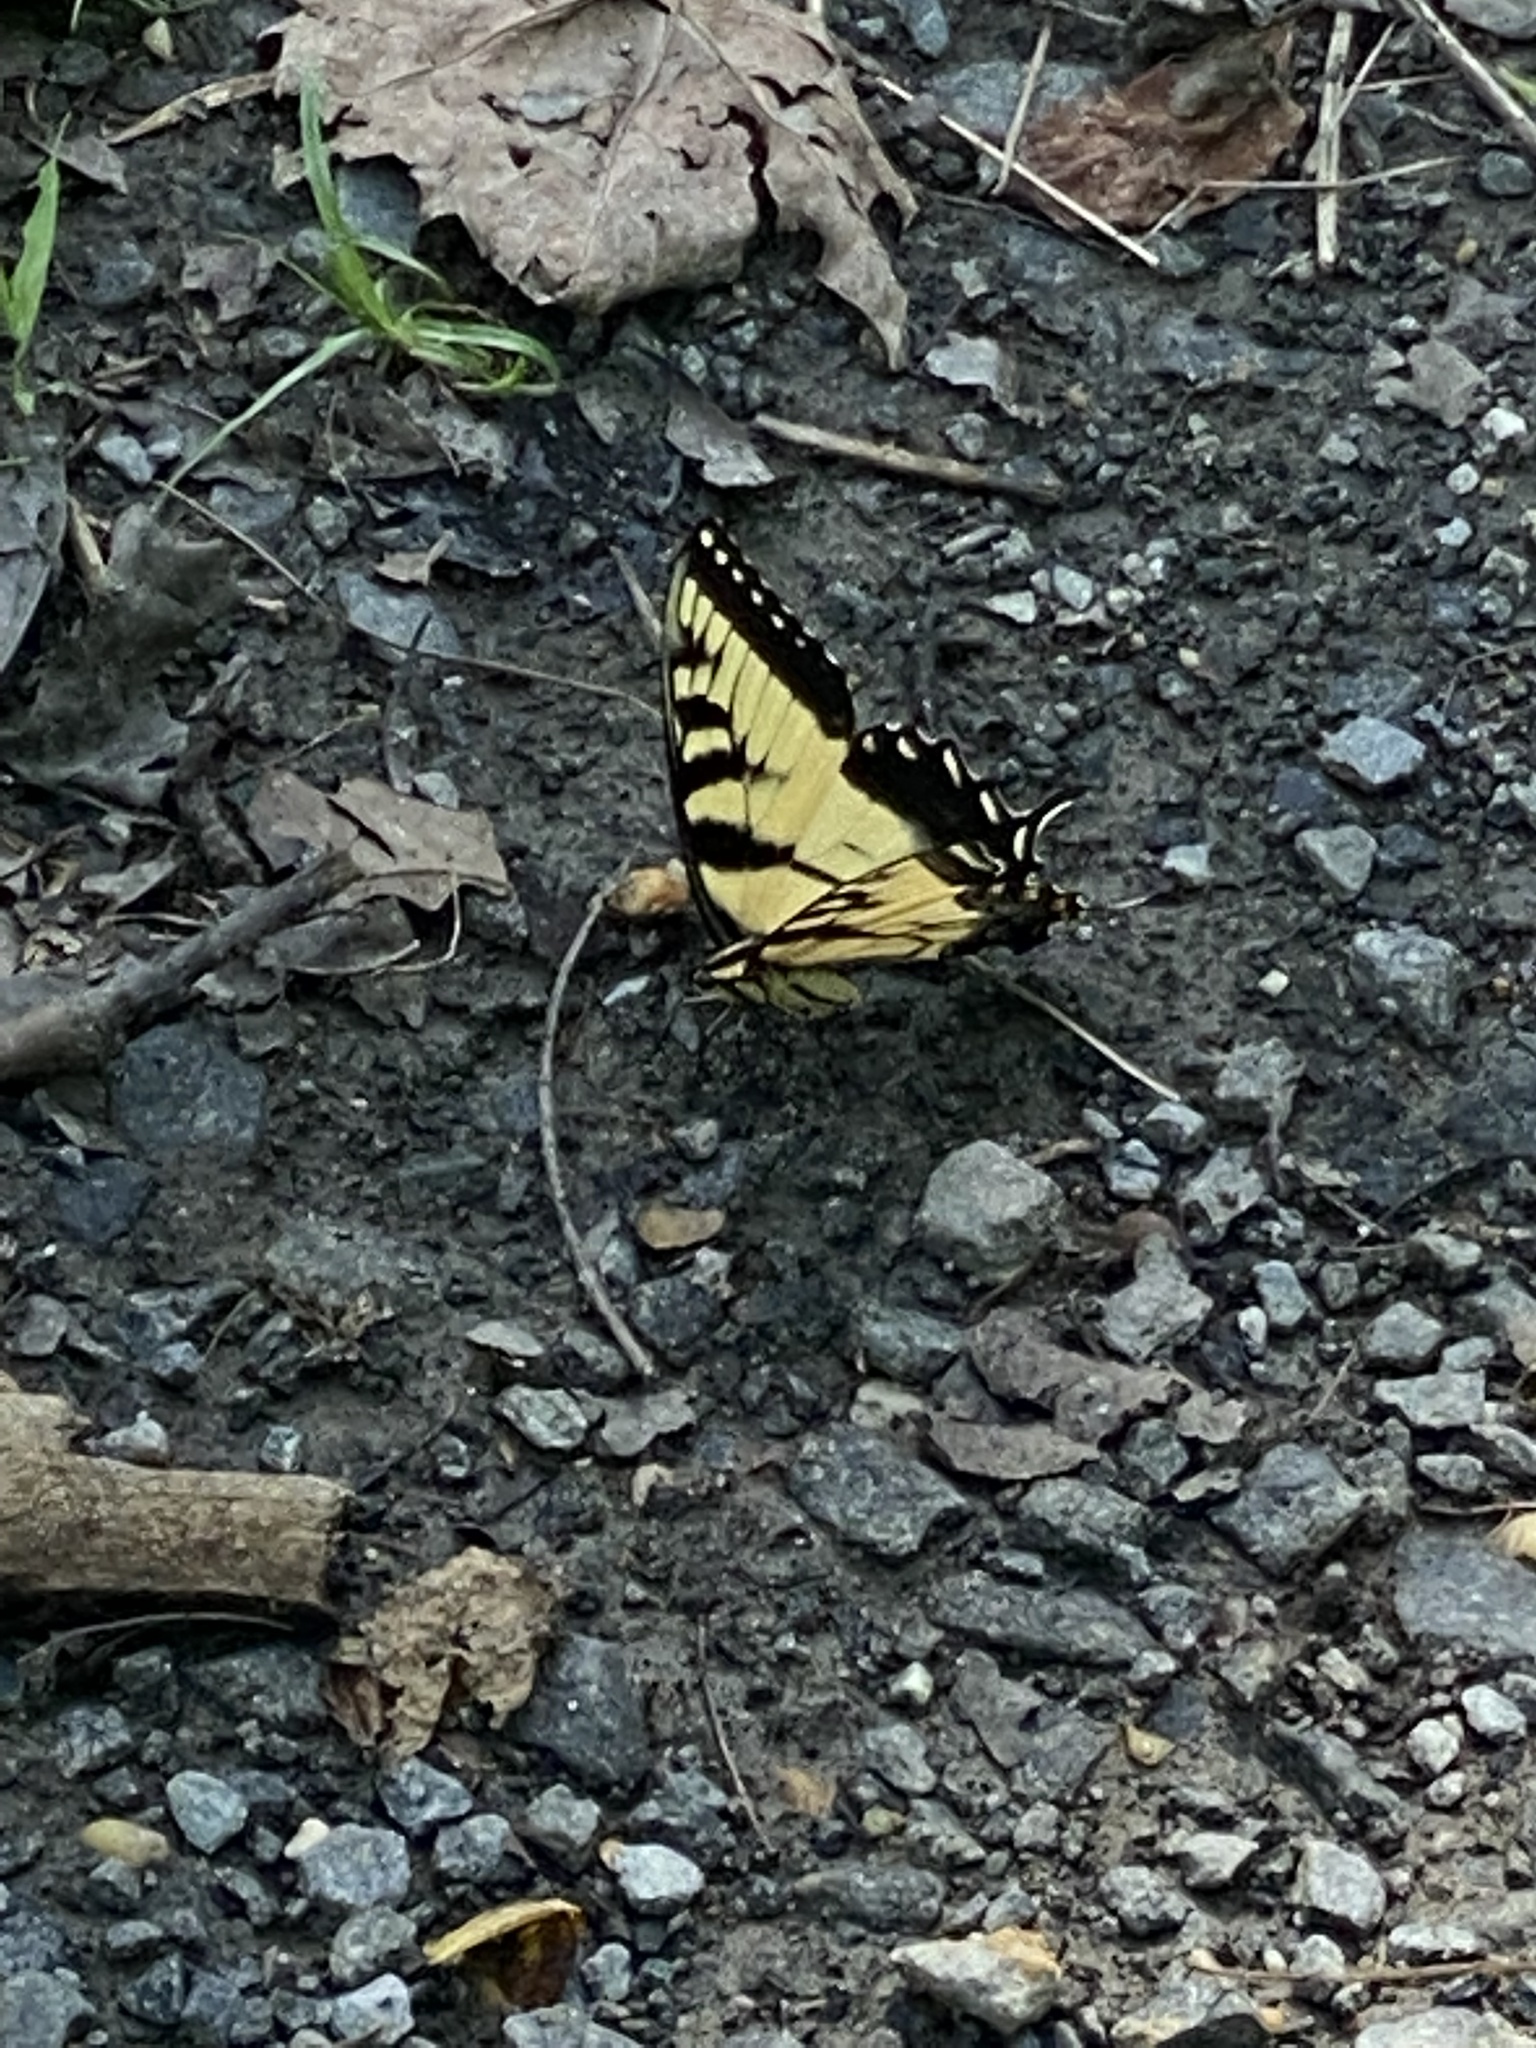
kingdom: Animalia
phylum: Arthropoda
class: Insecta
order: Lepidoptera
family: Papilionidae
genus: Papilio
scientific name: Papilio glaucus
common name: Tiger swallowtail
